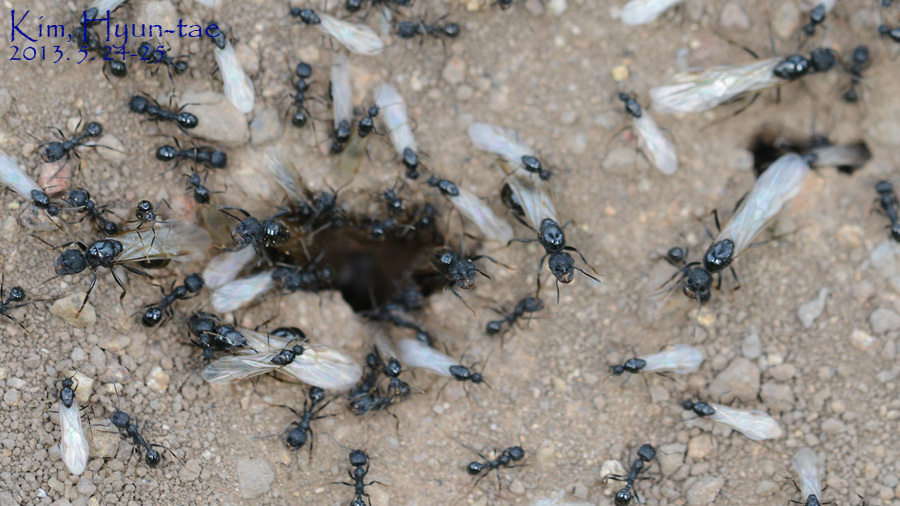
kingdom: Animalia
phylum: Arthropoda
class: Insecta
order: Hymenoptera
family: Formicidae
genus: Messor
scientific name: Messor aciculatus
